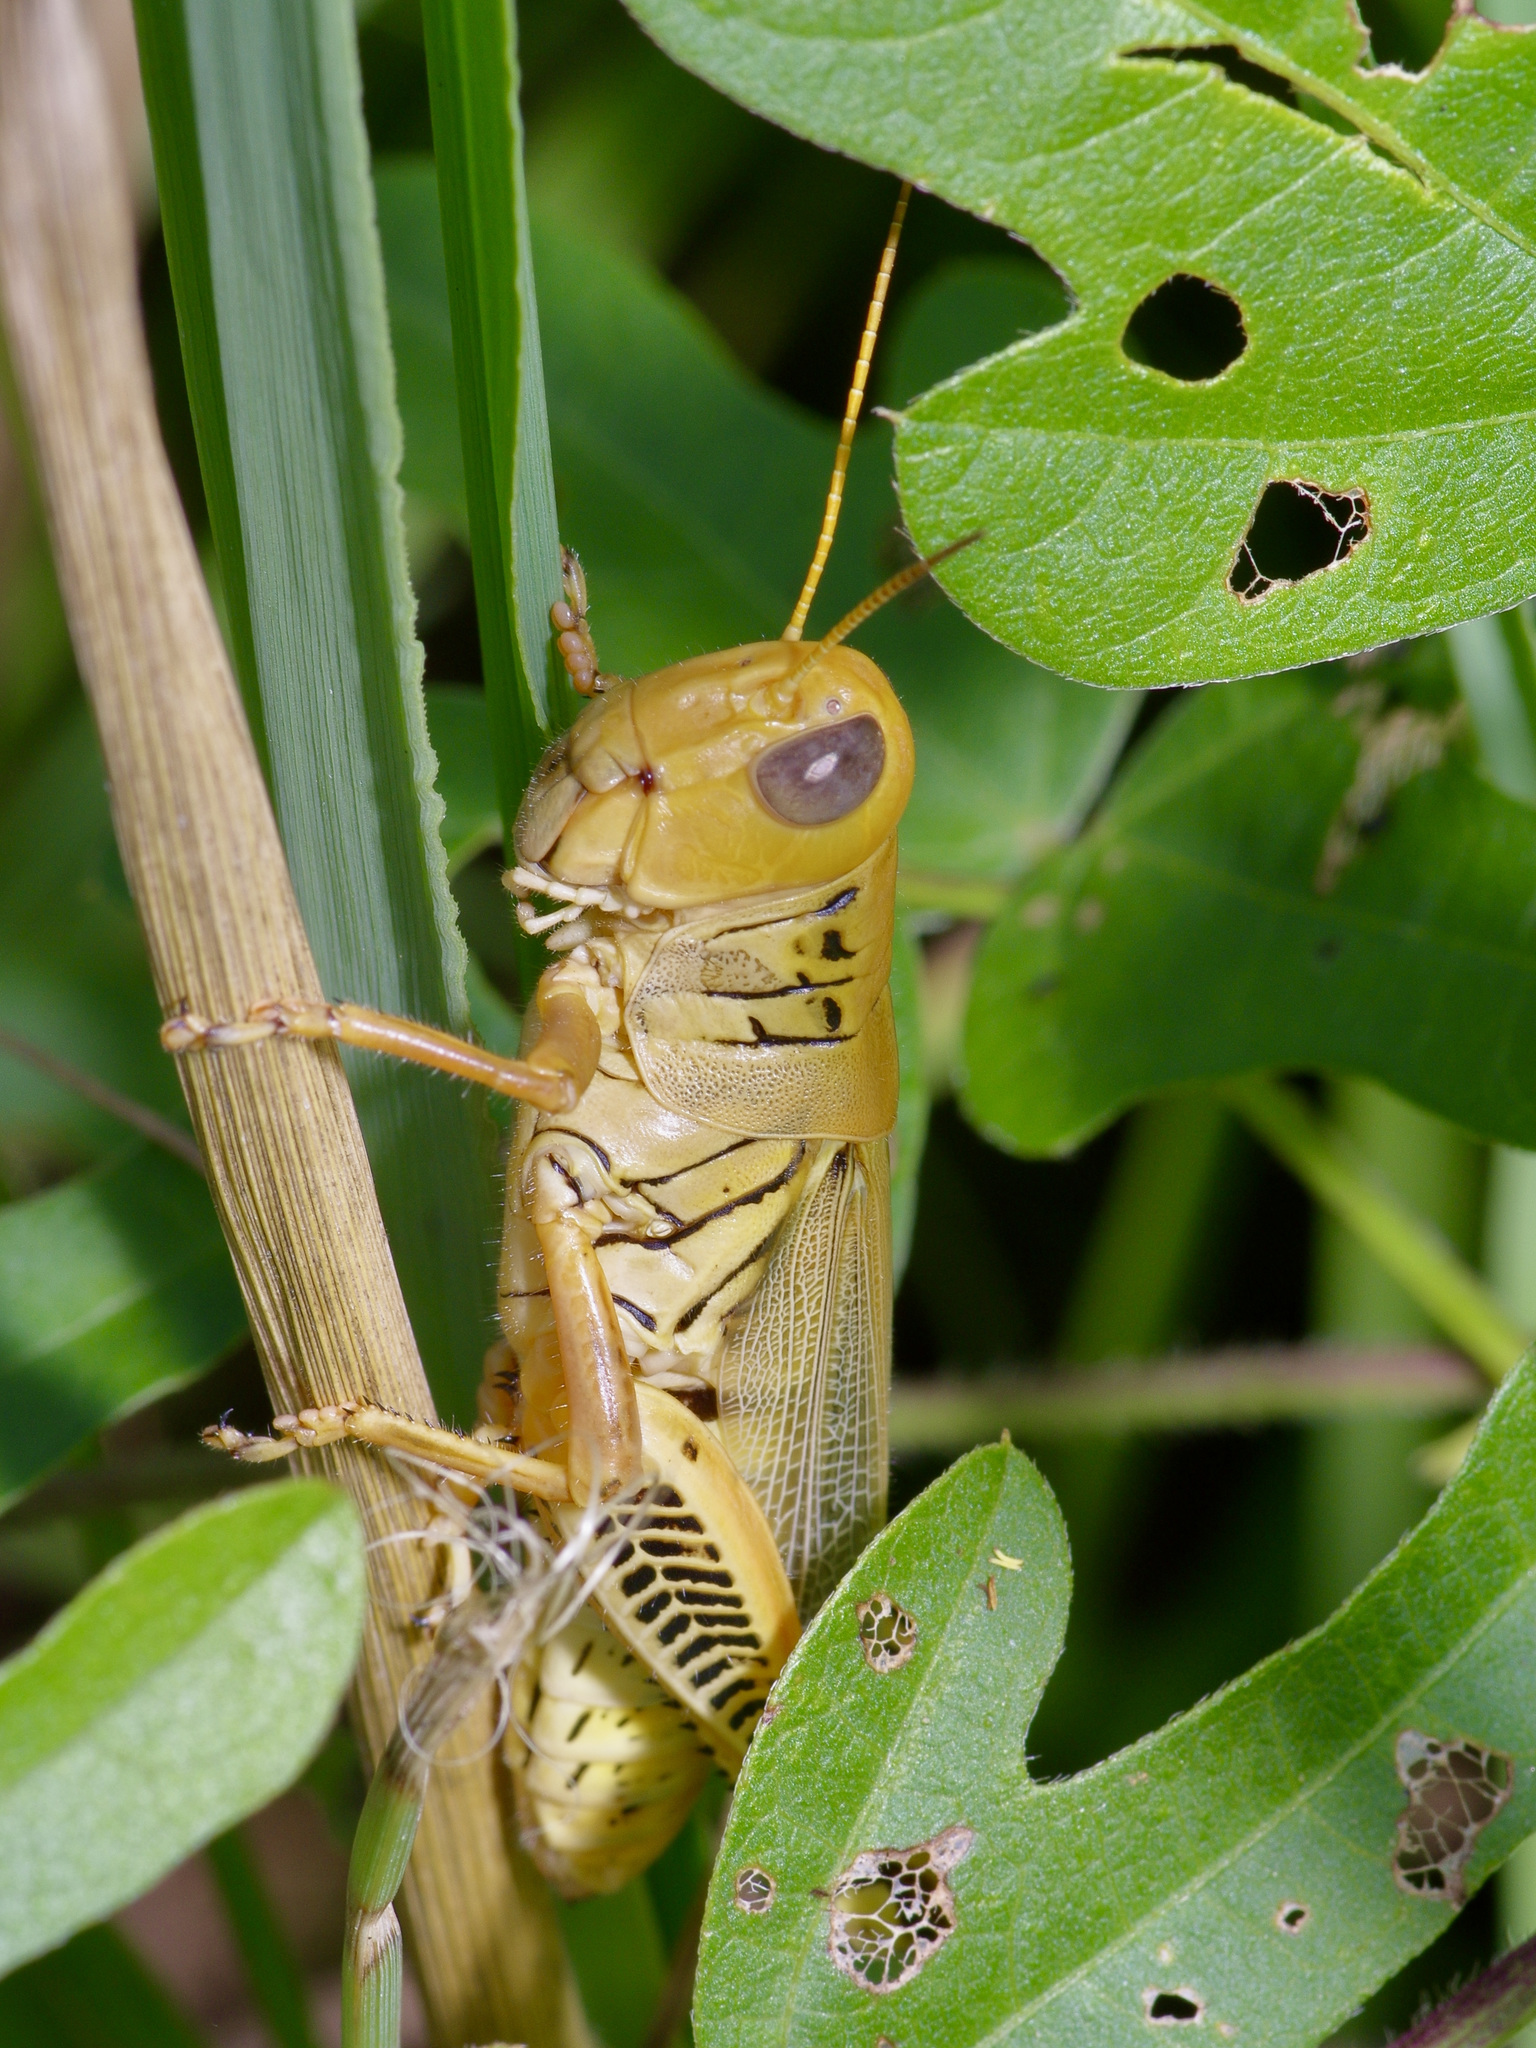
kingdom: Animalia
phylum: Arthropoda
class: Insecta
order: Orthoptera
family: Acrididae
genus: Melanoplus
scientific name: Melanoplus differentialis
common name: Differential grasshopper
